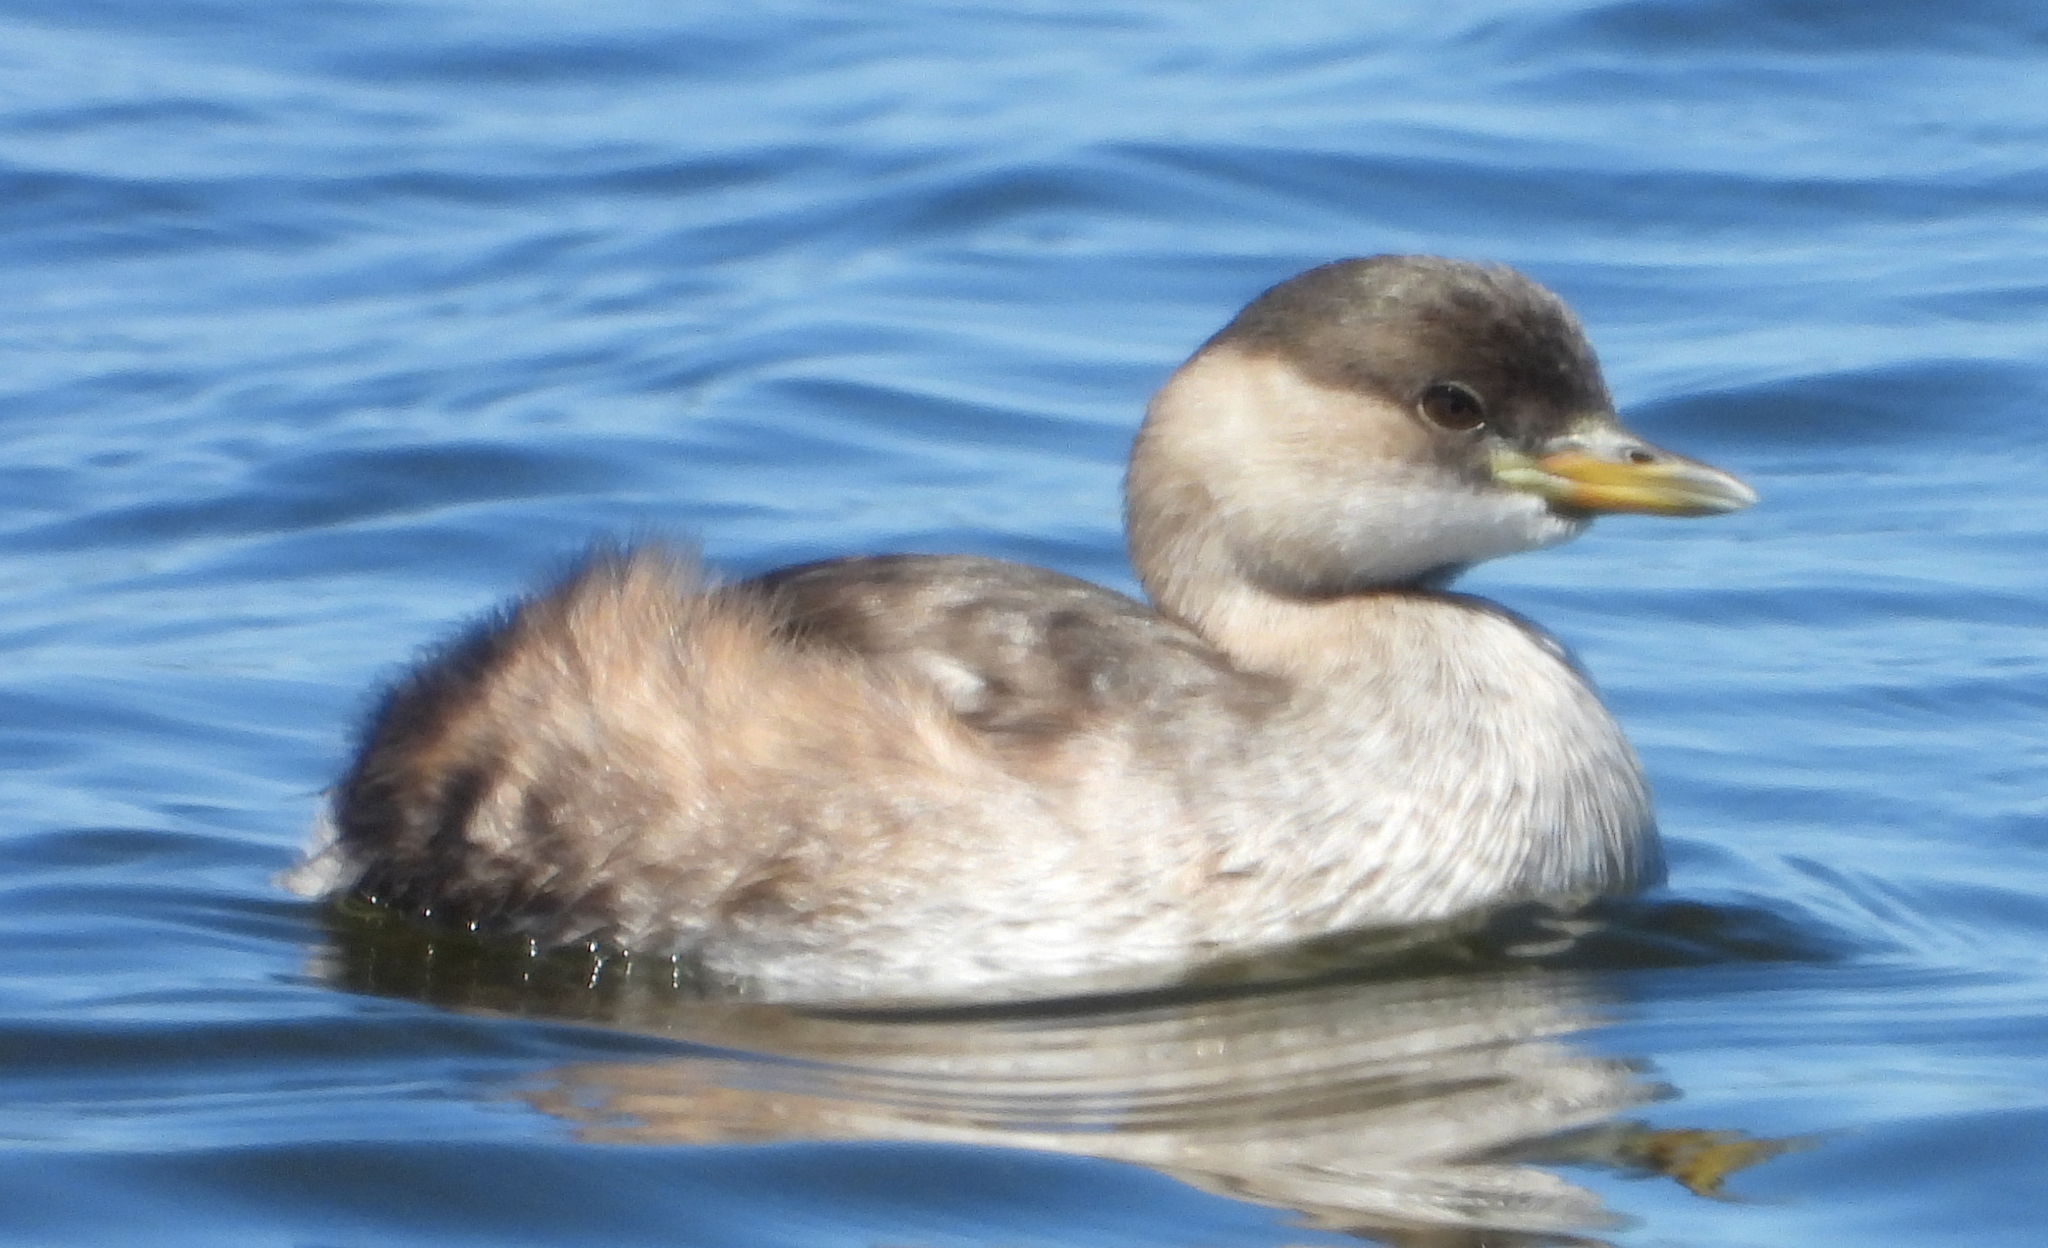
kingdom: Animalia
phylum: Chordata
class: Aves
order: Podicipediformes
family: Podicipedidae
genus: Tachybaptus
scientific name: Tachybaptus ruficollis
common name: Little grebe
